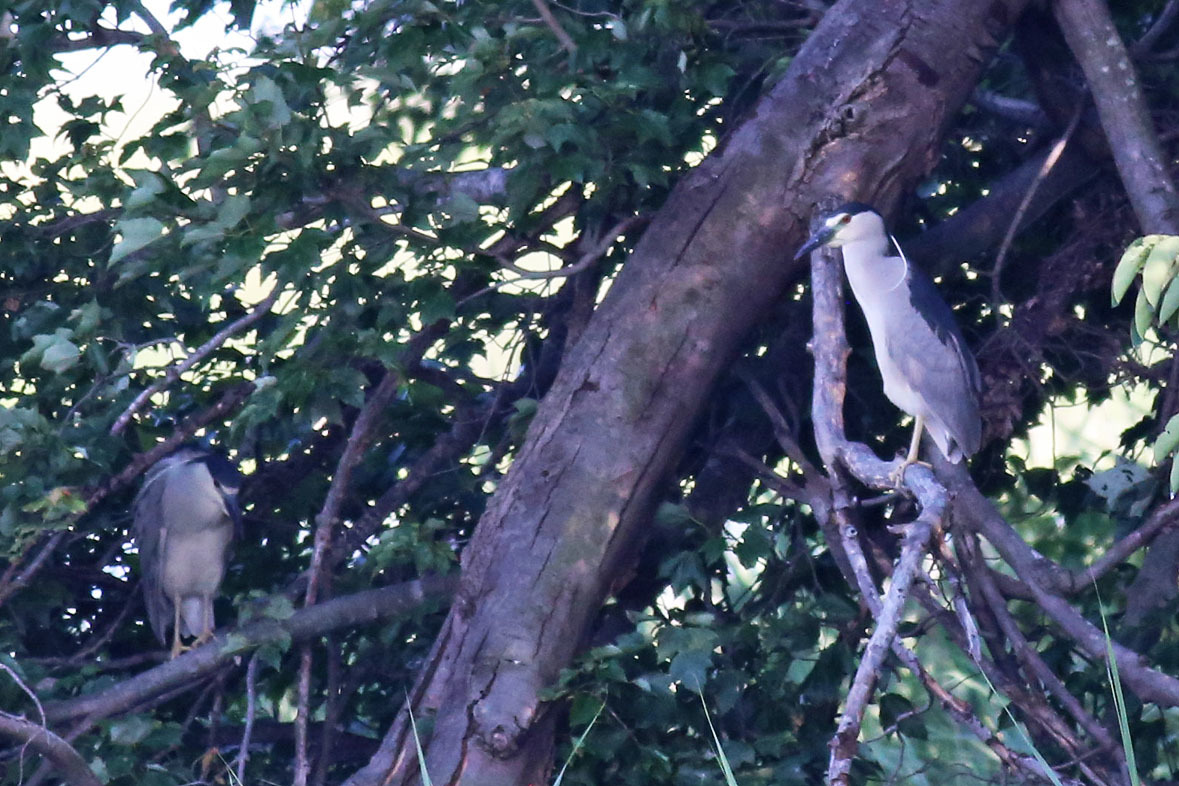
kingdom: Animalia
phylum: Chordata
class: Aves
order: Pelecaniformes
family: Ardeidae
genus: Nycticorax
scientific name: Nycticorax nycticorax
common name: Black-crowned night heron
